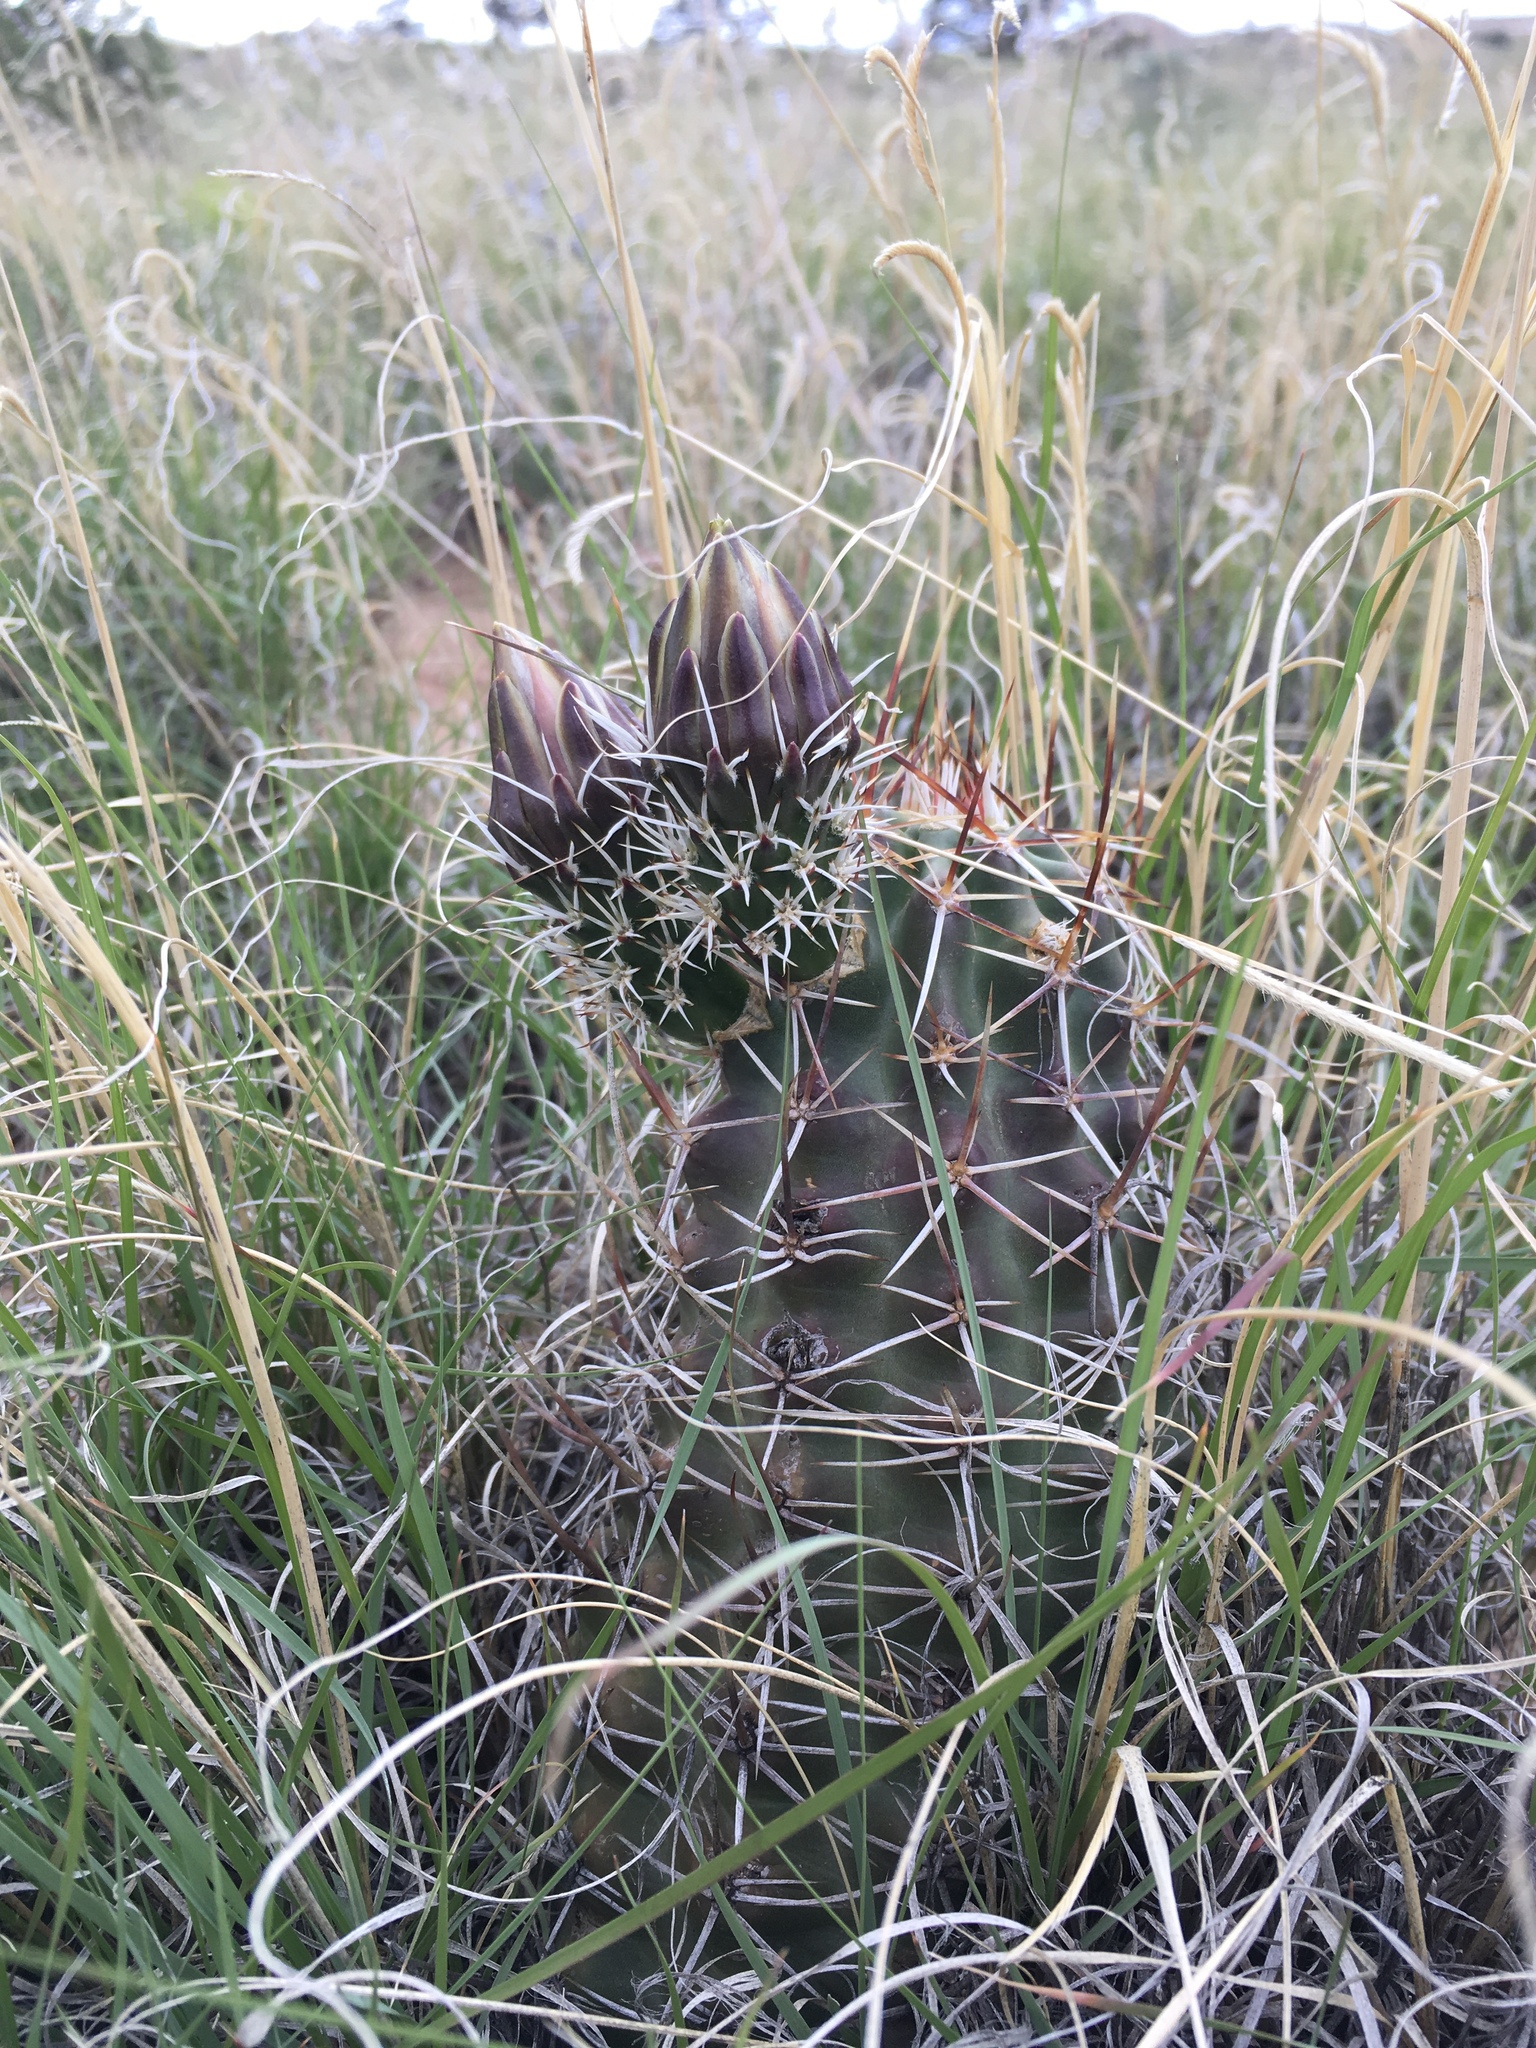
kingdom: Plantae
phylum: Tracheophyta
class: Magnoliopsida
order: Caryophyllales
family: Cactaceae
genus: Echinocereus
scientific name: Echinocereus fendleri
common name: Fendler's hedgehog cactus
